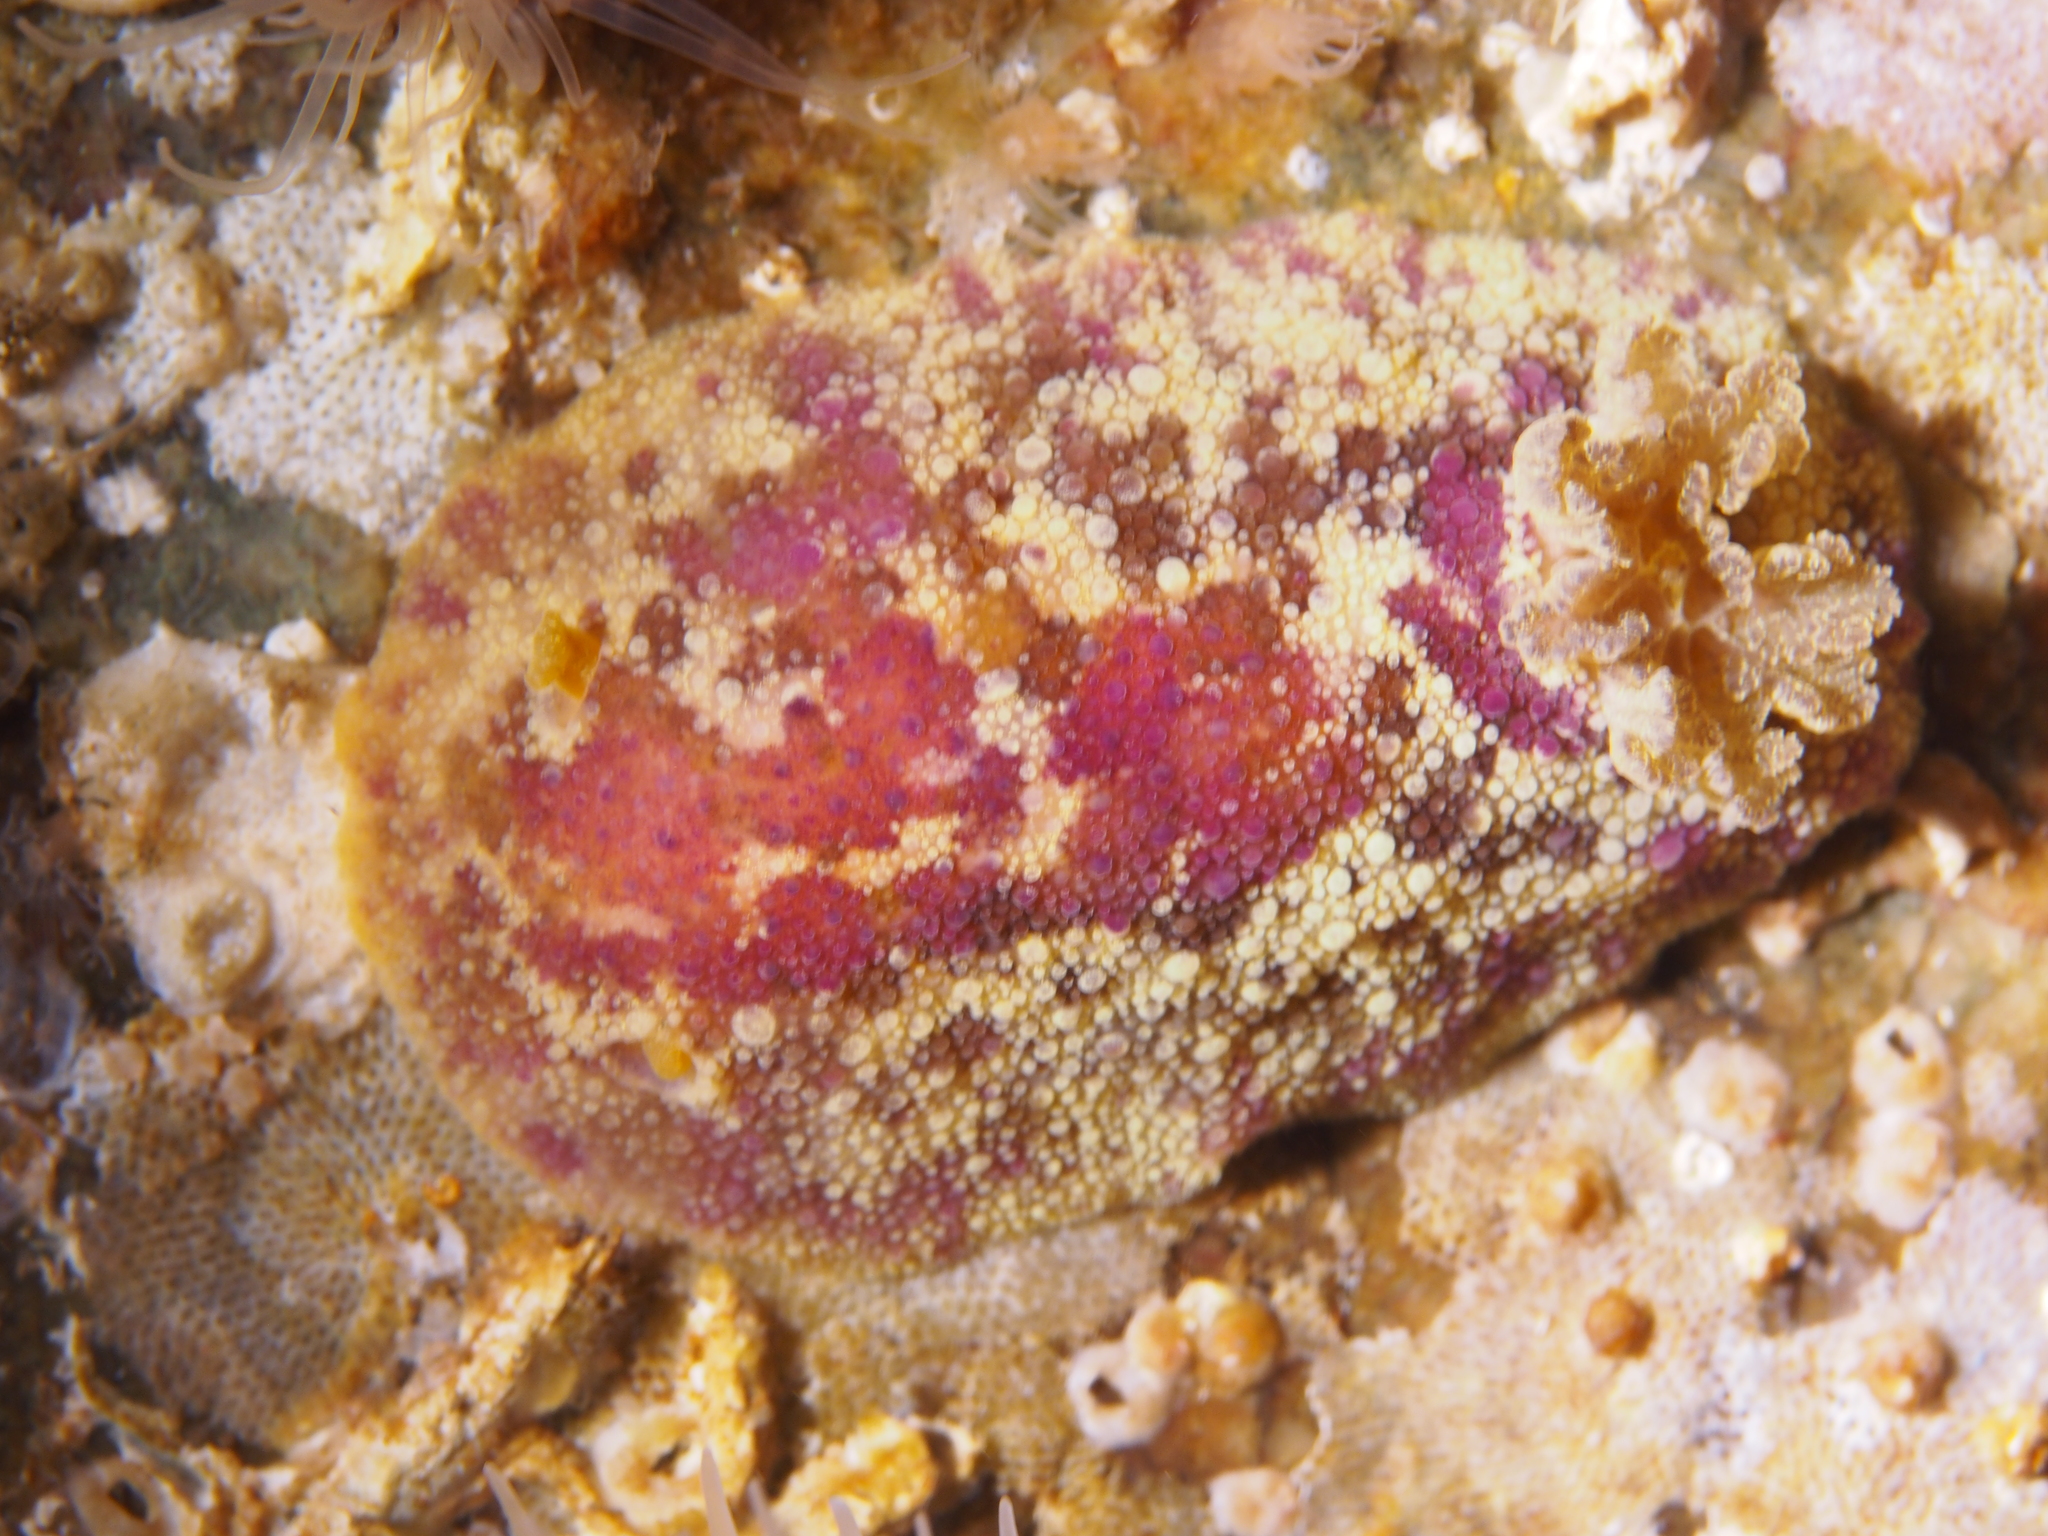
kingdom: Animalia
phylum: Mollusca
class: Gastropoda
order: Nudibranchia
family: Dorididae
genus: Doris
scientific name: Doris pseudoargus
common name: Sea lemon
